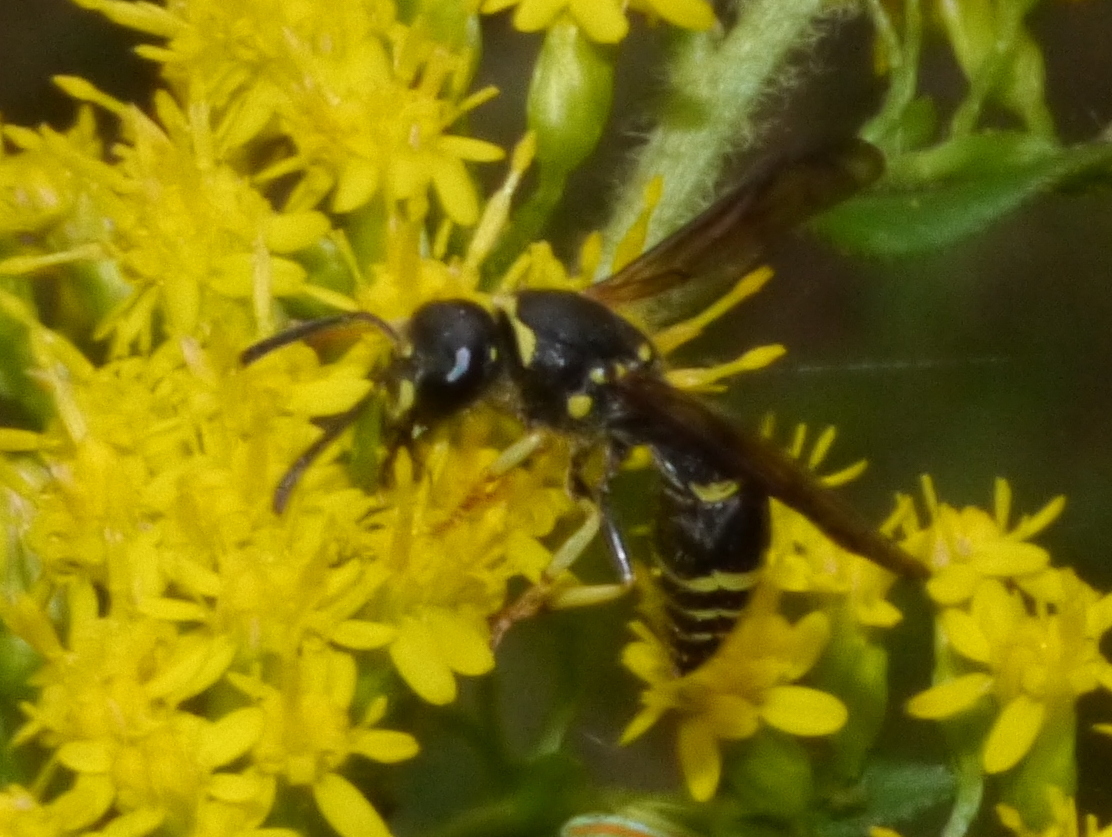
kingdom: Animalia
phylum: Arthropoda
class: Insecta
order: Hymenoptera
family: Vespidae
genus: Ancistrocerus
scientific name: Ancistrocerus adiabatus
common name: Bramble mason wasp
